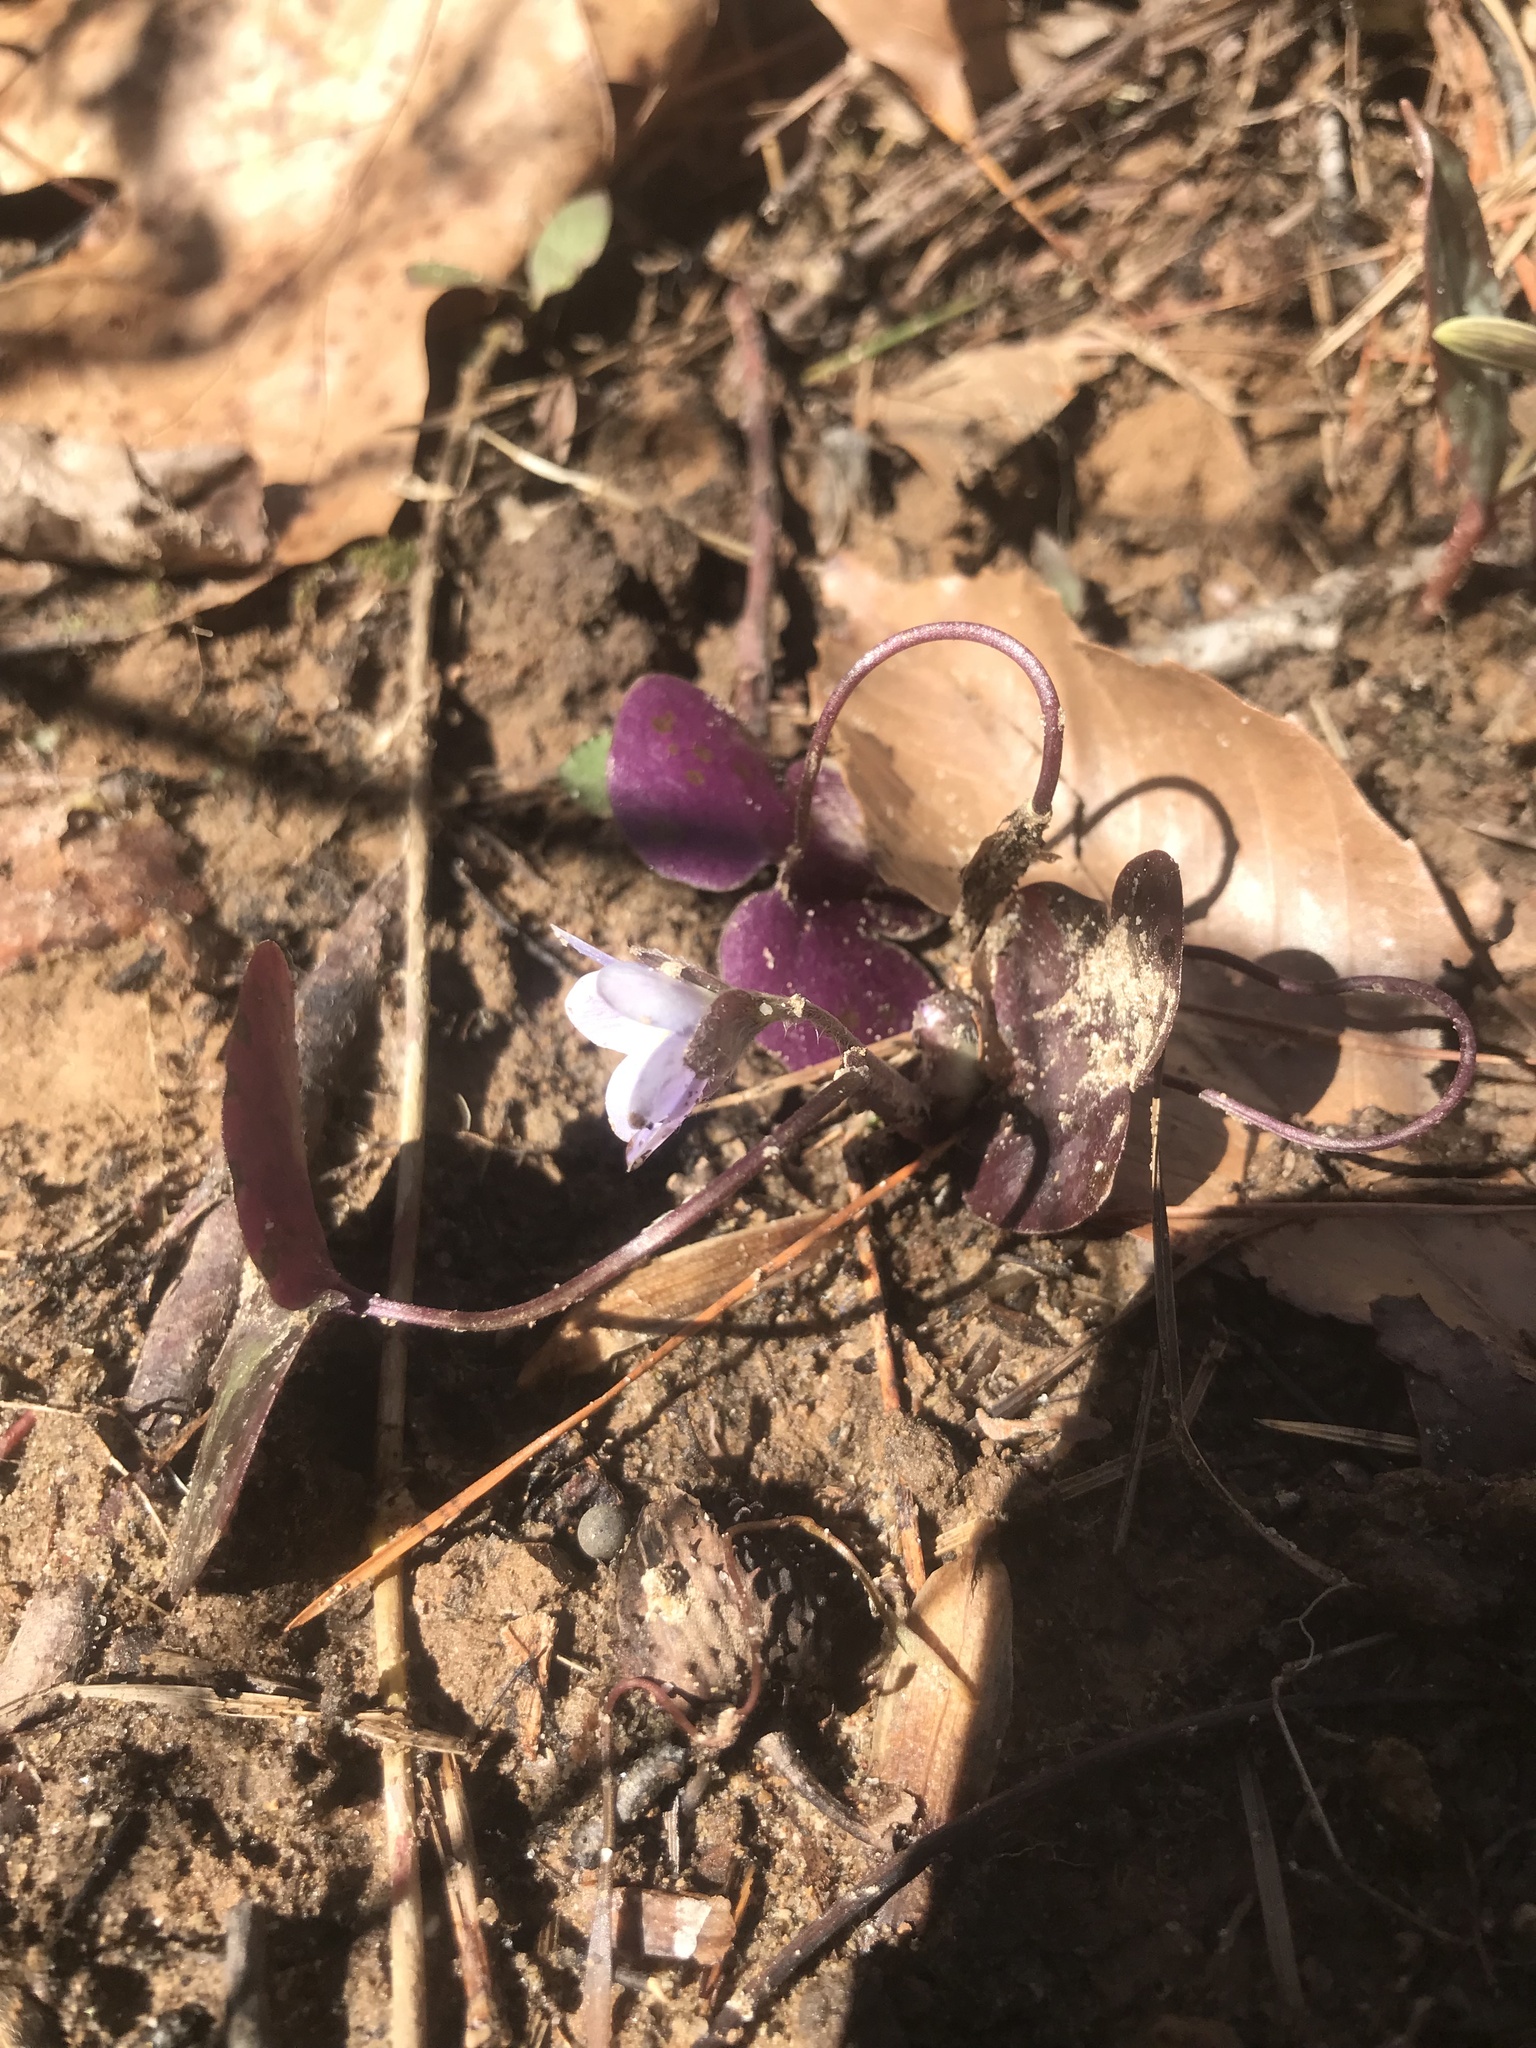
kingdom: Plantae
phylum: Tracheophyta
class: Magnoliopsida
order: Ranunculales
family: Ranunculaceae
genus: Hepatica
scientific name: Hepatica americana
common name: American hepatica
